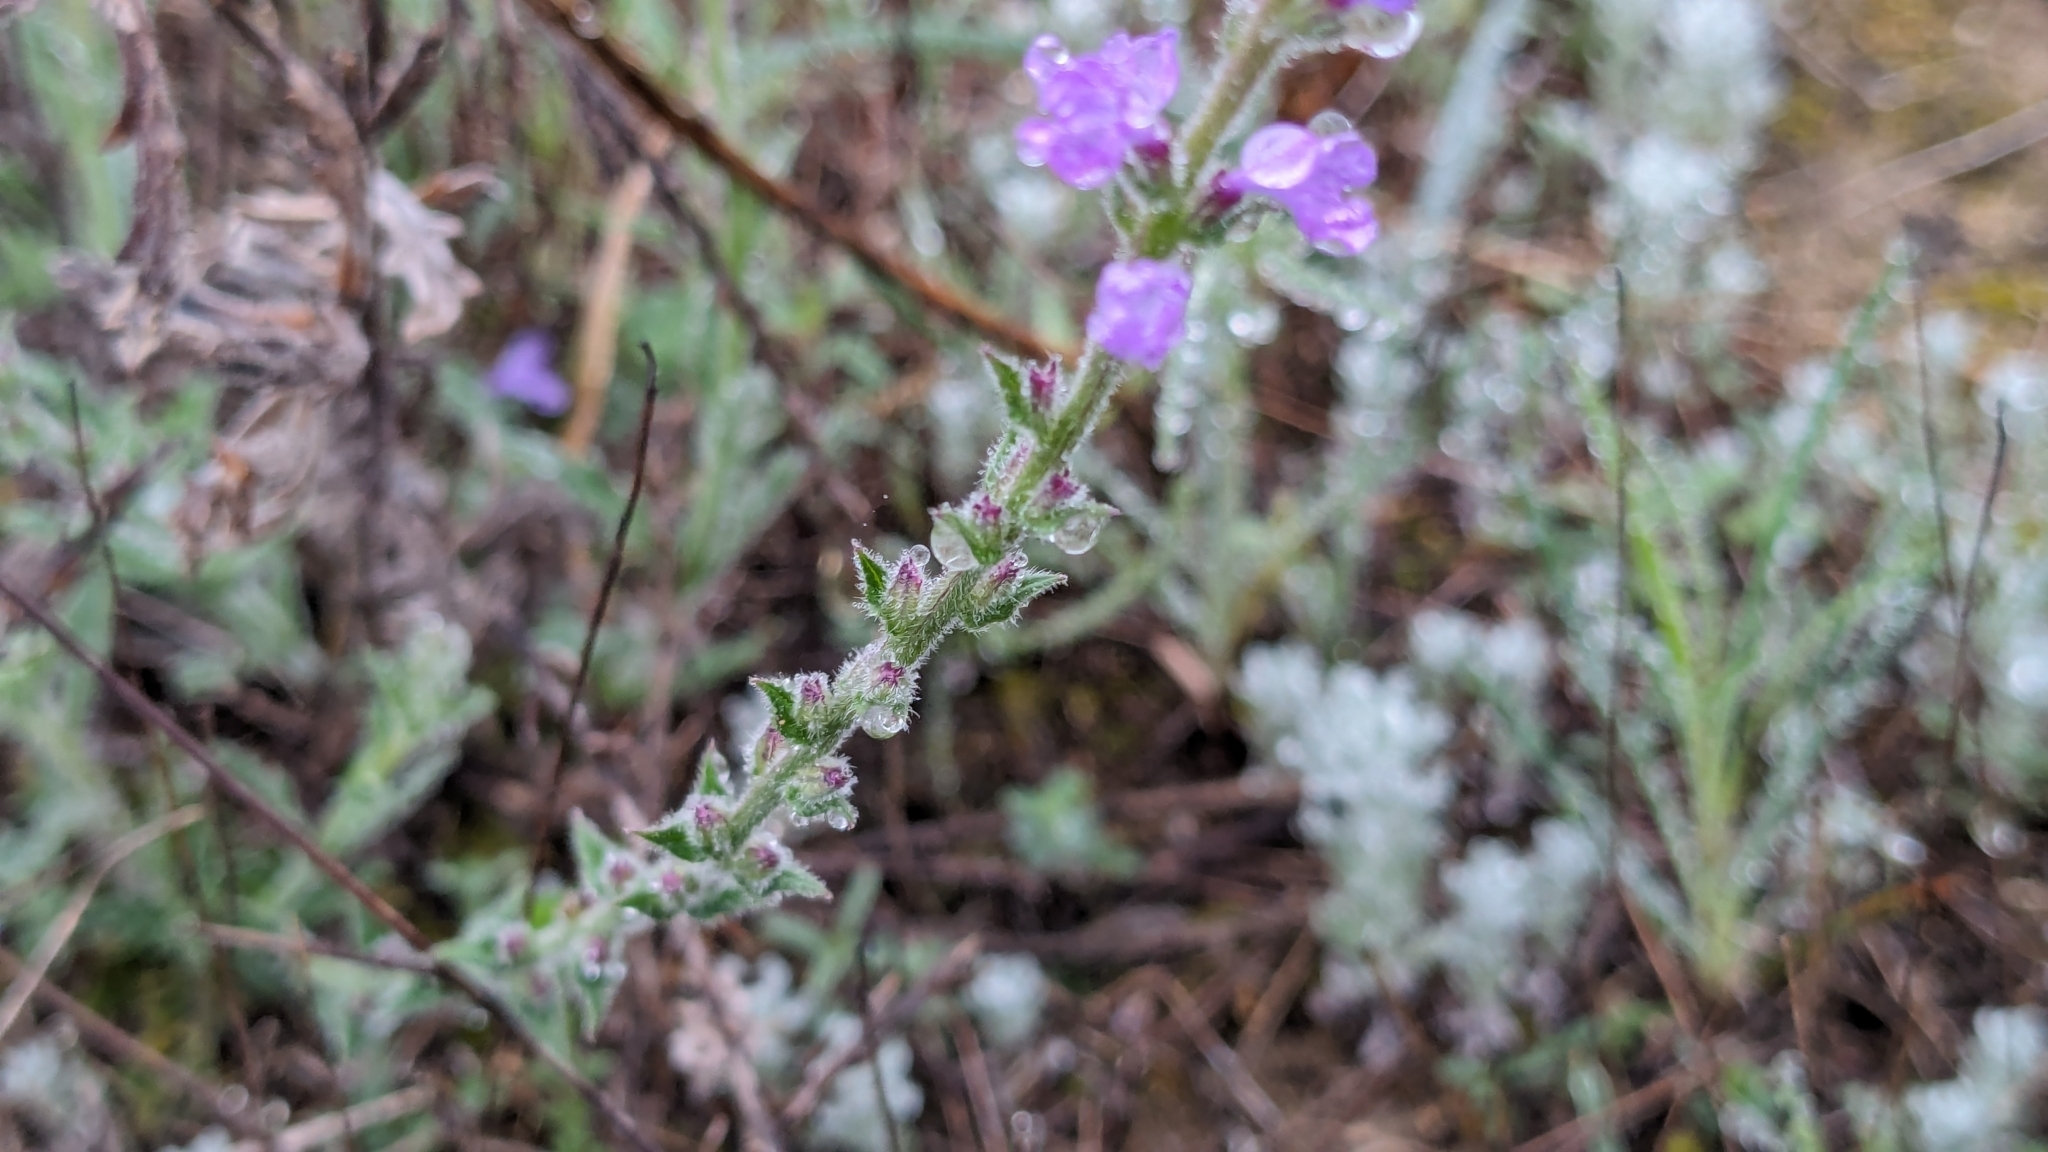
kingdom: Plantae
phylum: Tracheophyta
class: Magnoliopsida
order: Lamiales
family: Verbenaceae
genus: Verbena
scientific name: Verbena canescens
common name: Gray vervain
